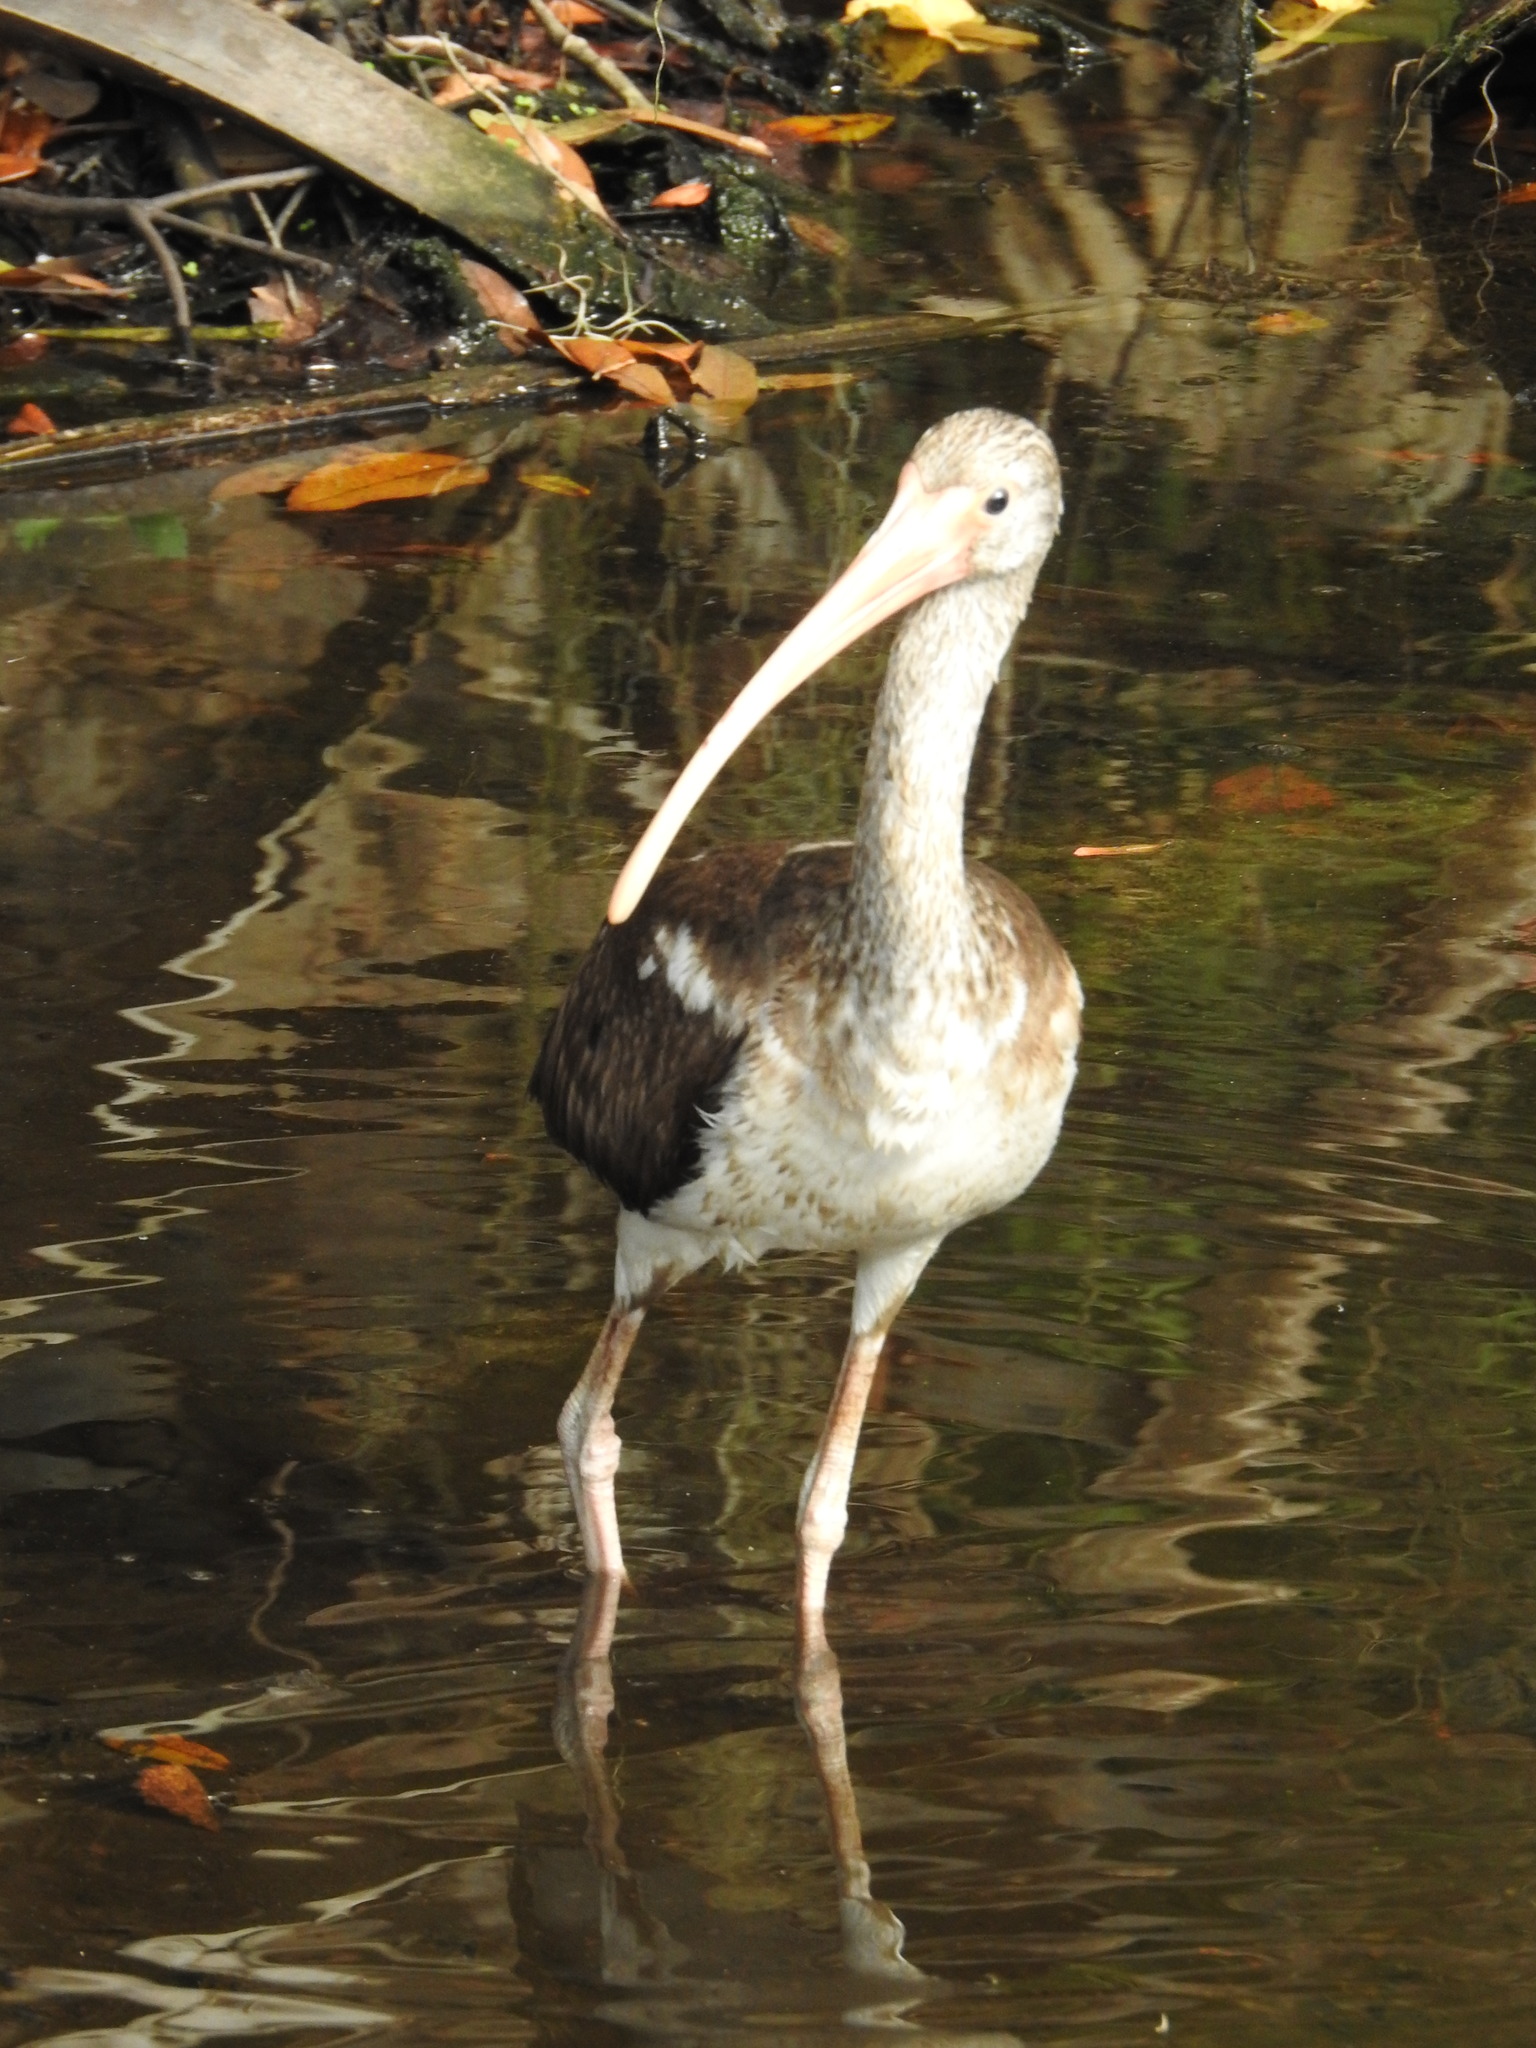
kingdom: Animalia
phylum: Chordata
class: Aves
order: Pelecaniformes
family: Threskiornithidae
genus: Eudocimus
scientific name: Eudocimus albus
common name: White ibis
